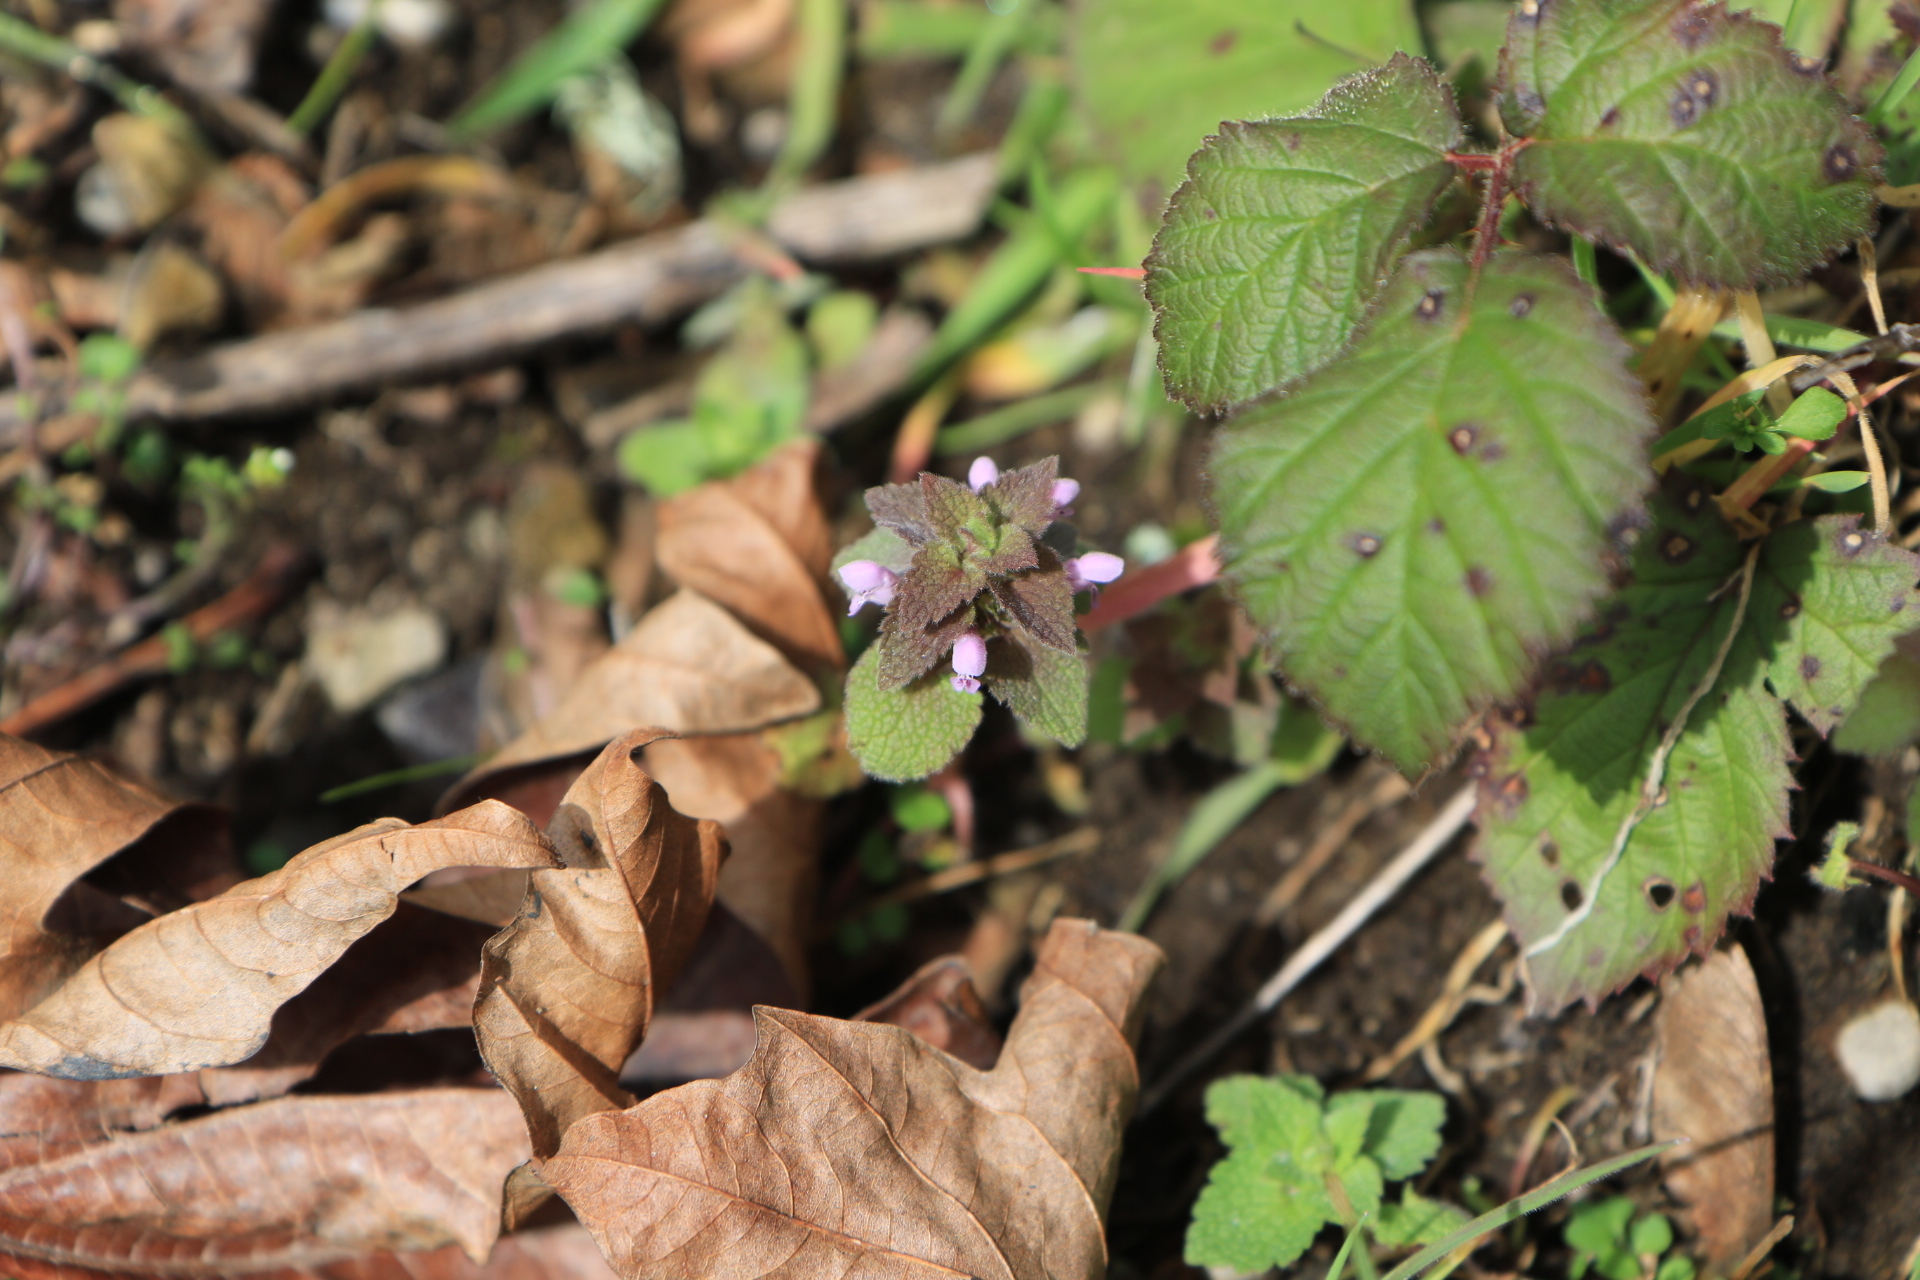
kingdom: Plantae
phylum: Tracheophyta
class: Magnoliopsida
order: Lamiales
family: Lamiaceae
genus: Lamium
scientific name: Lamium purpureum
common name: Red dead-nettle
